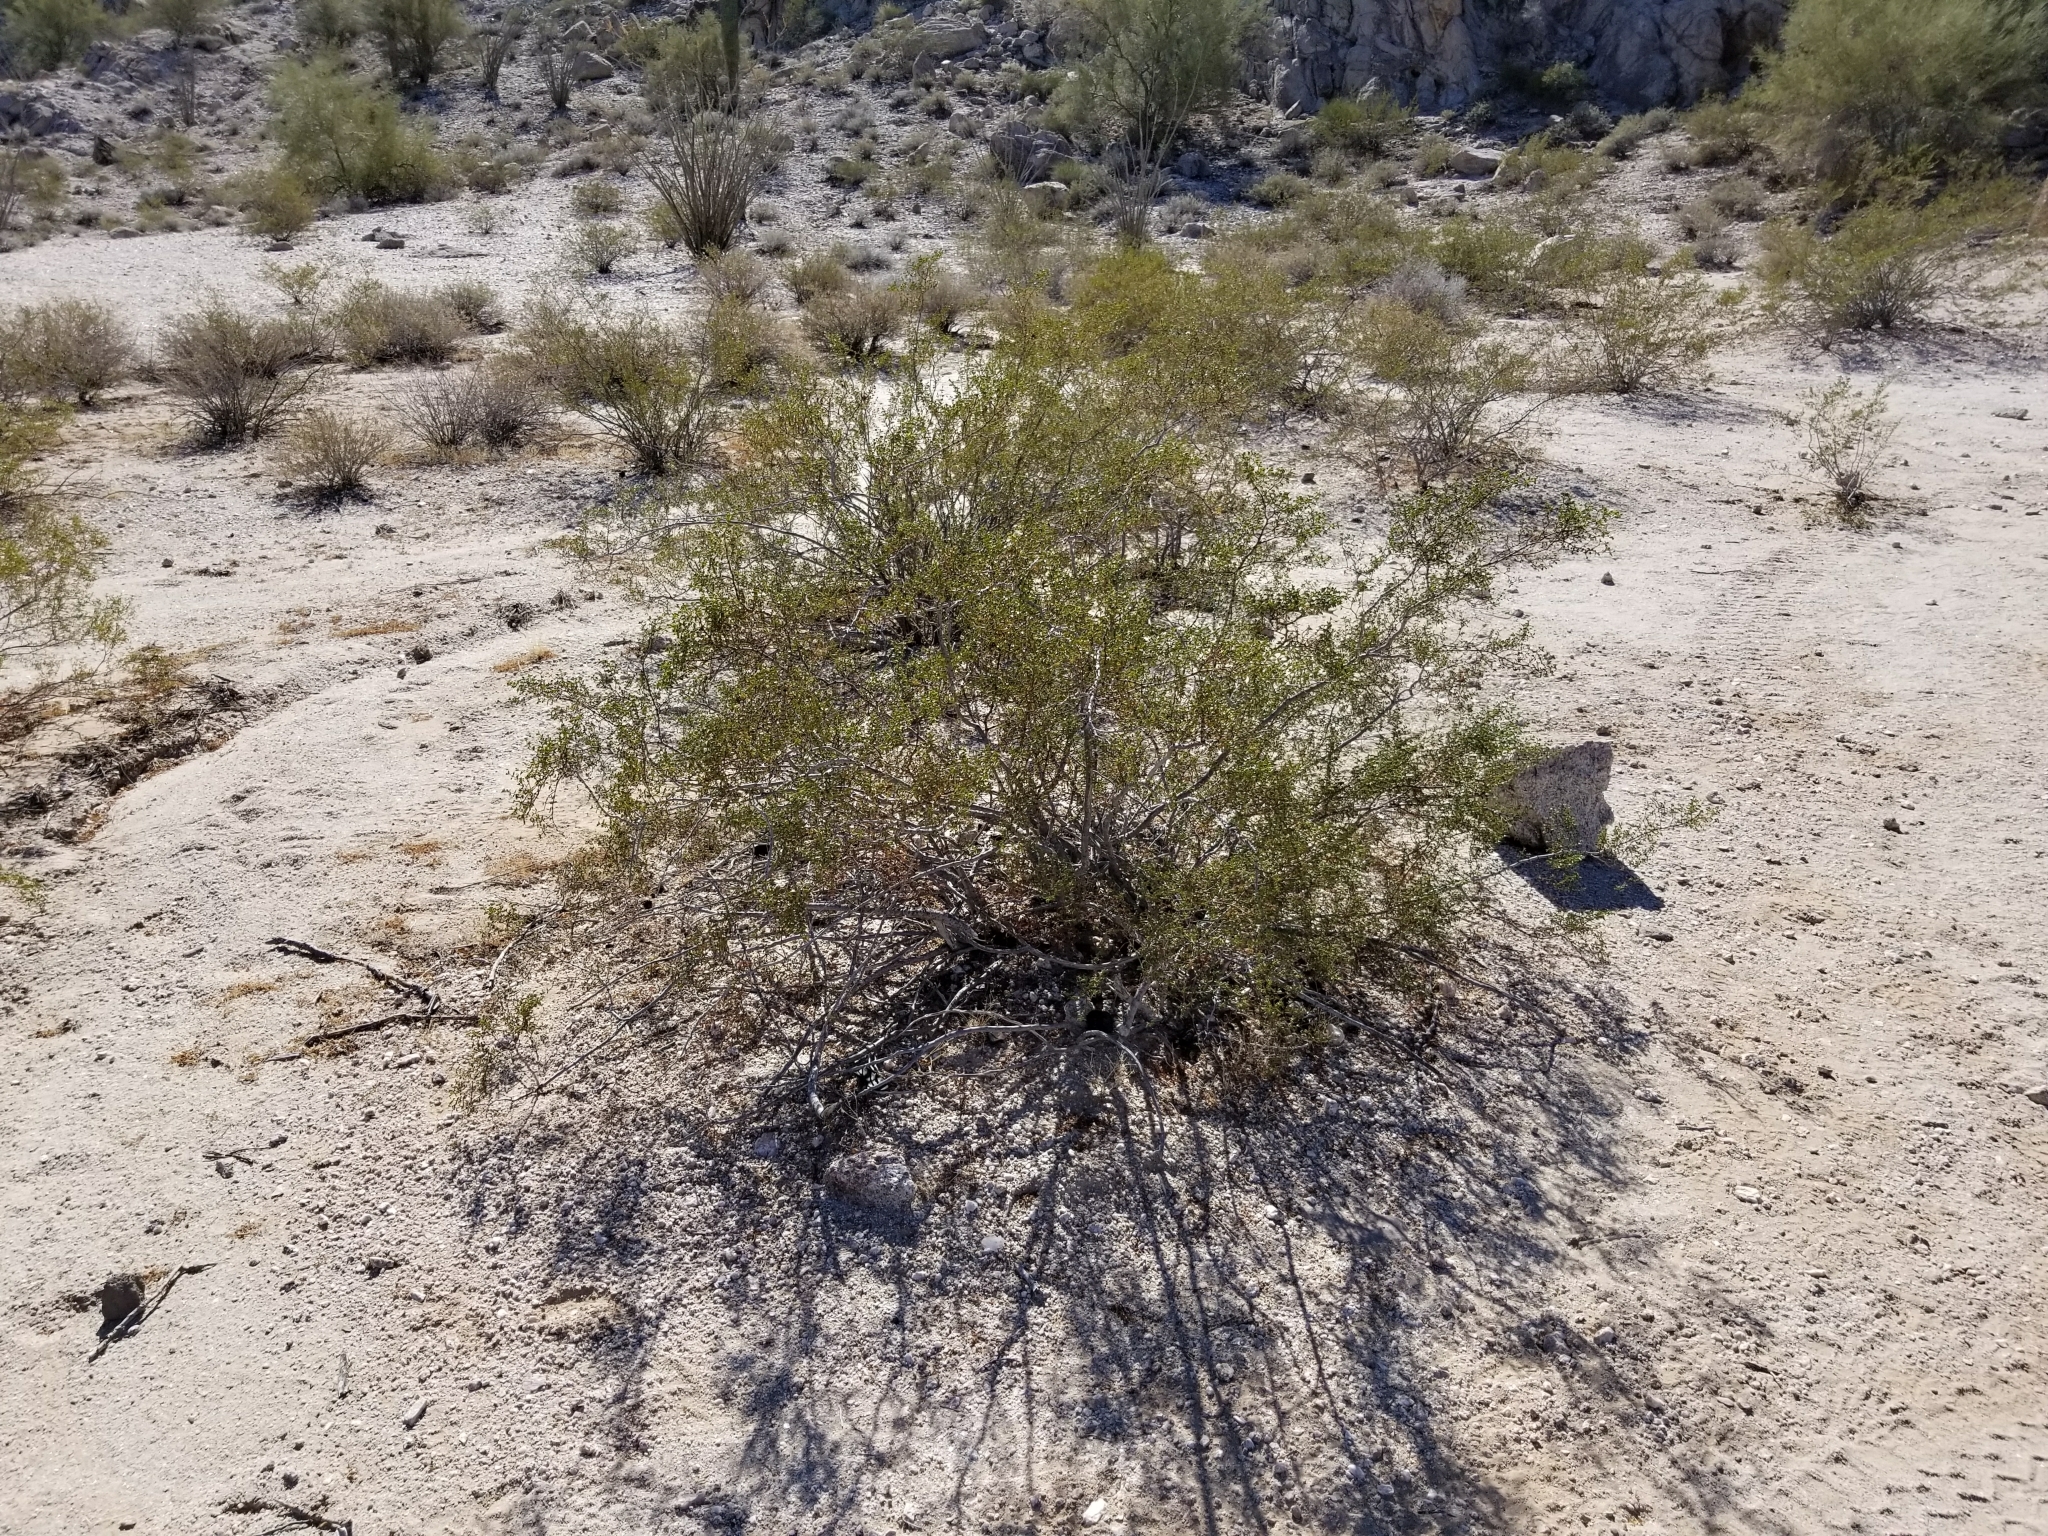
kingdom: Plantae
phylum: Tracheophyta
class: Magnoliopsida
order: Zygophyllales
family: Zygophyllaceae
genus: Larrea
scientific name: Larrea tridentata
